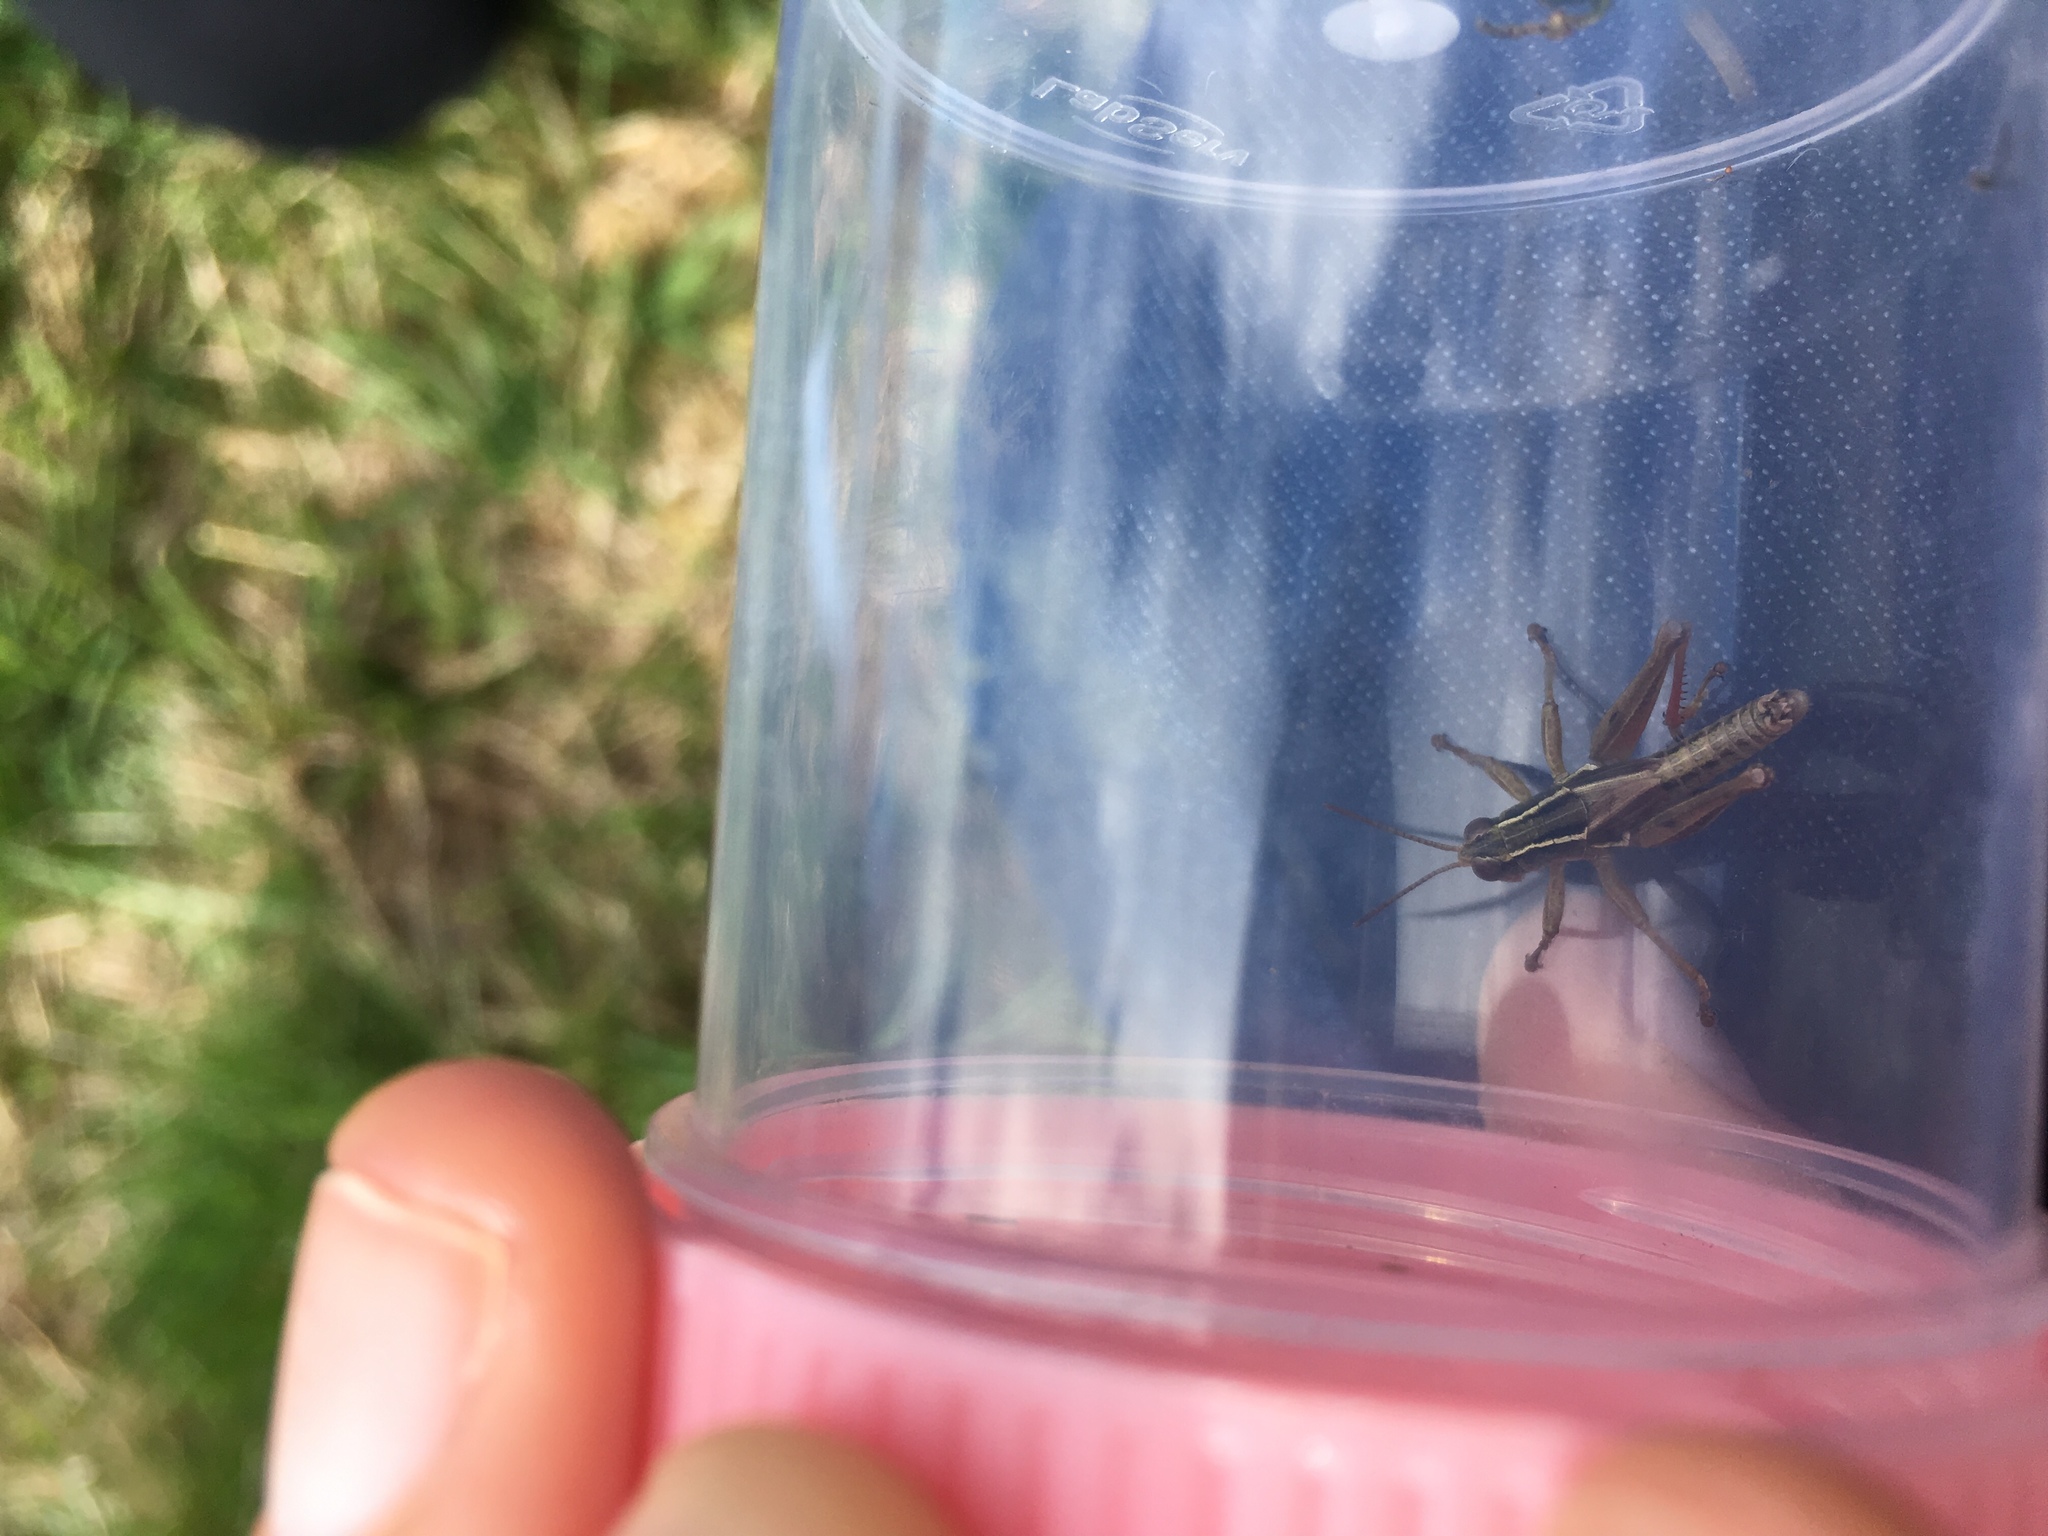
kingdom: Animalia
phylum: Arthropoda
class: Insecta
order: Orthoptera
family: Acrididae
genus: Phaulacridium
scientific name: Phaulacridium marginale
